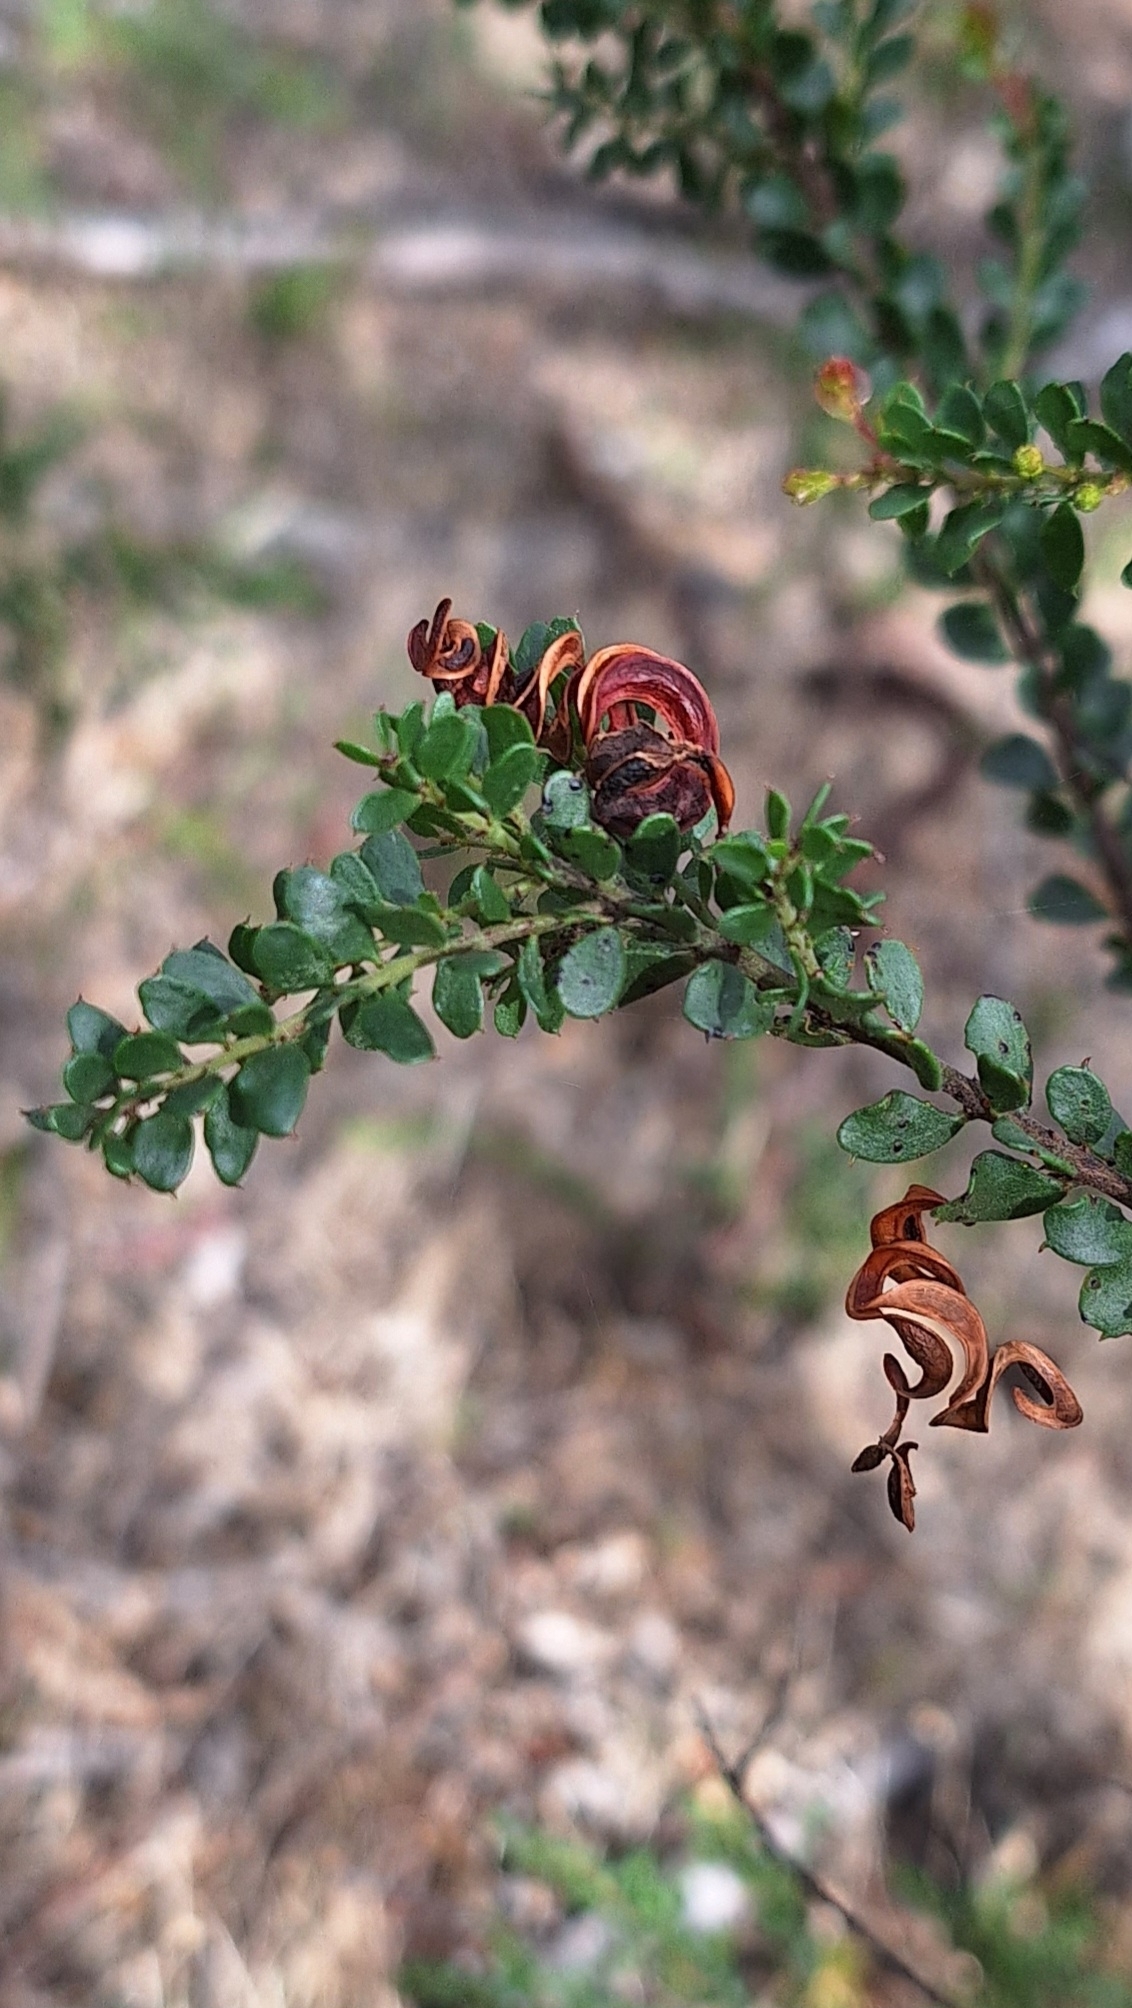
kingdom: Plantae
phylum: Tracheophyta
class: Magnoliopsida
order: Fabales
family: Fabaceae
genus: Acacia
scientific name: Acacia acinacea
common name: Gold-dust acacia
